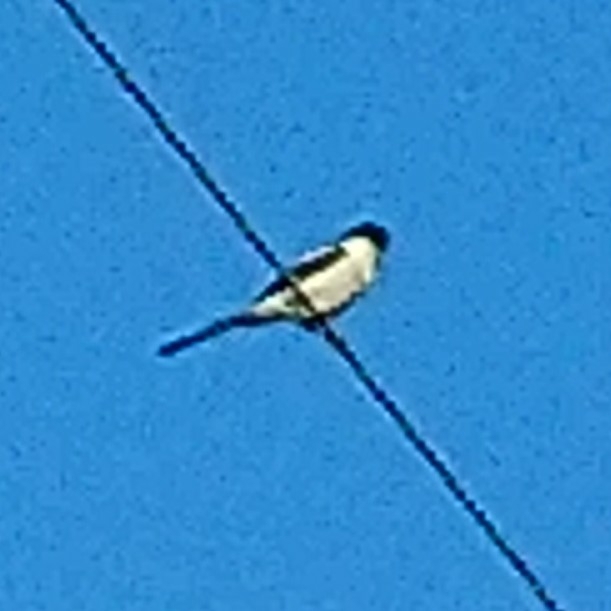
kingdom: Animalia
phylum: Chordata
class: Aves
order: Passeriformes
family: Laniidae
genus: Lanius
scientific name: Lanius collaris
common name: Southern fiscal
